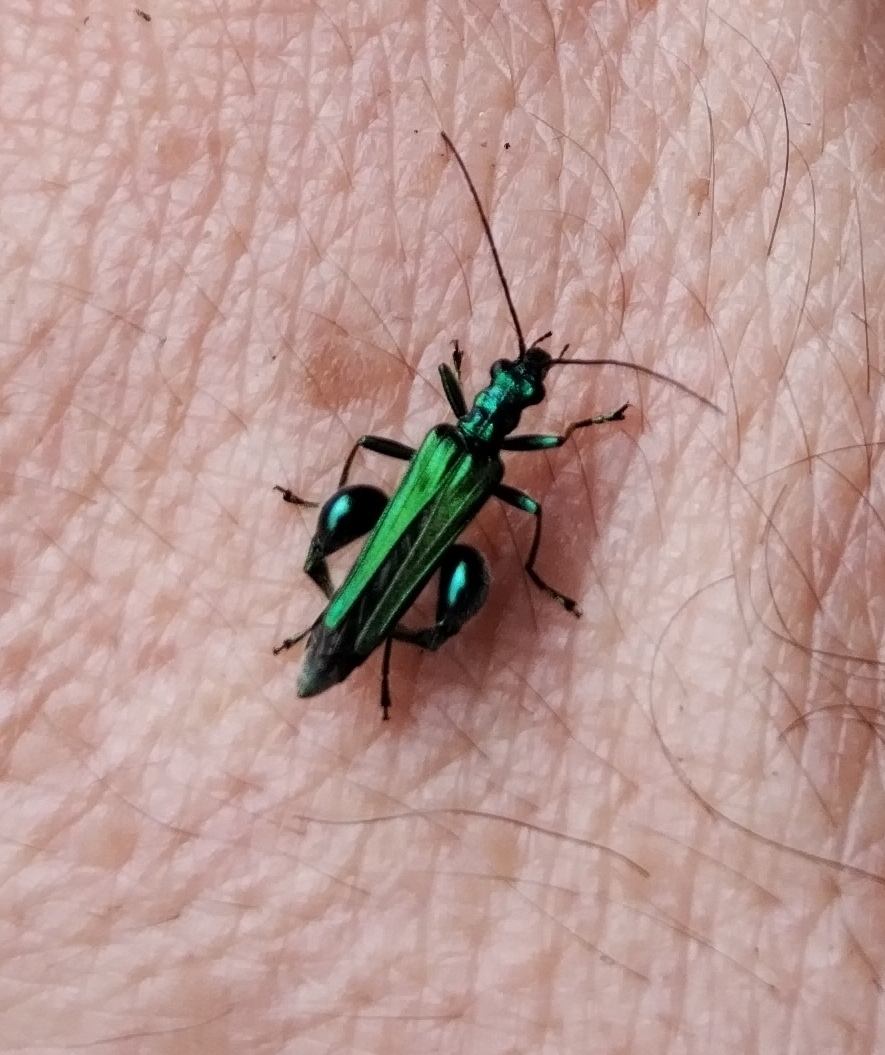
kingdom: Animalia
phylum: Arthropoda
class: Insecta
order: Coleoptera
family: Oedemeridae
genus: Oedemera
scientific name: Oedemera nobilis
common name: Swollen-thighed beetle
